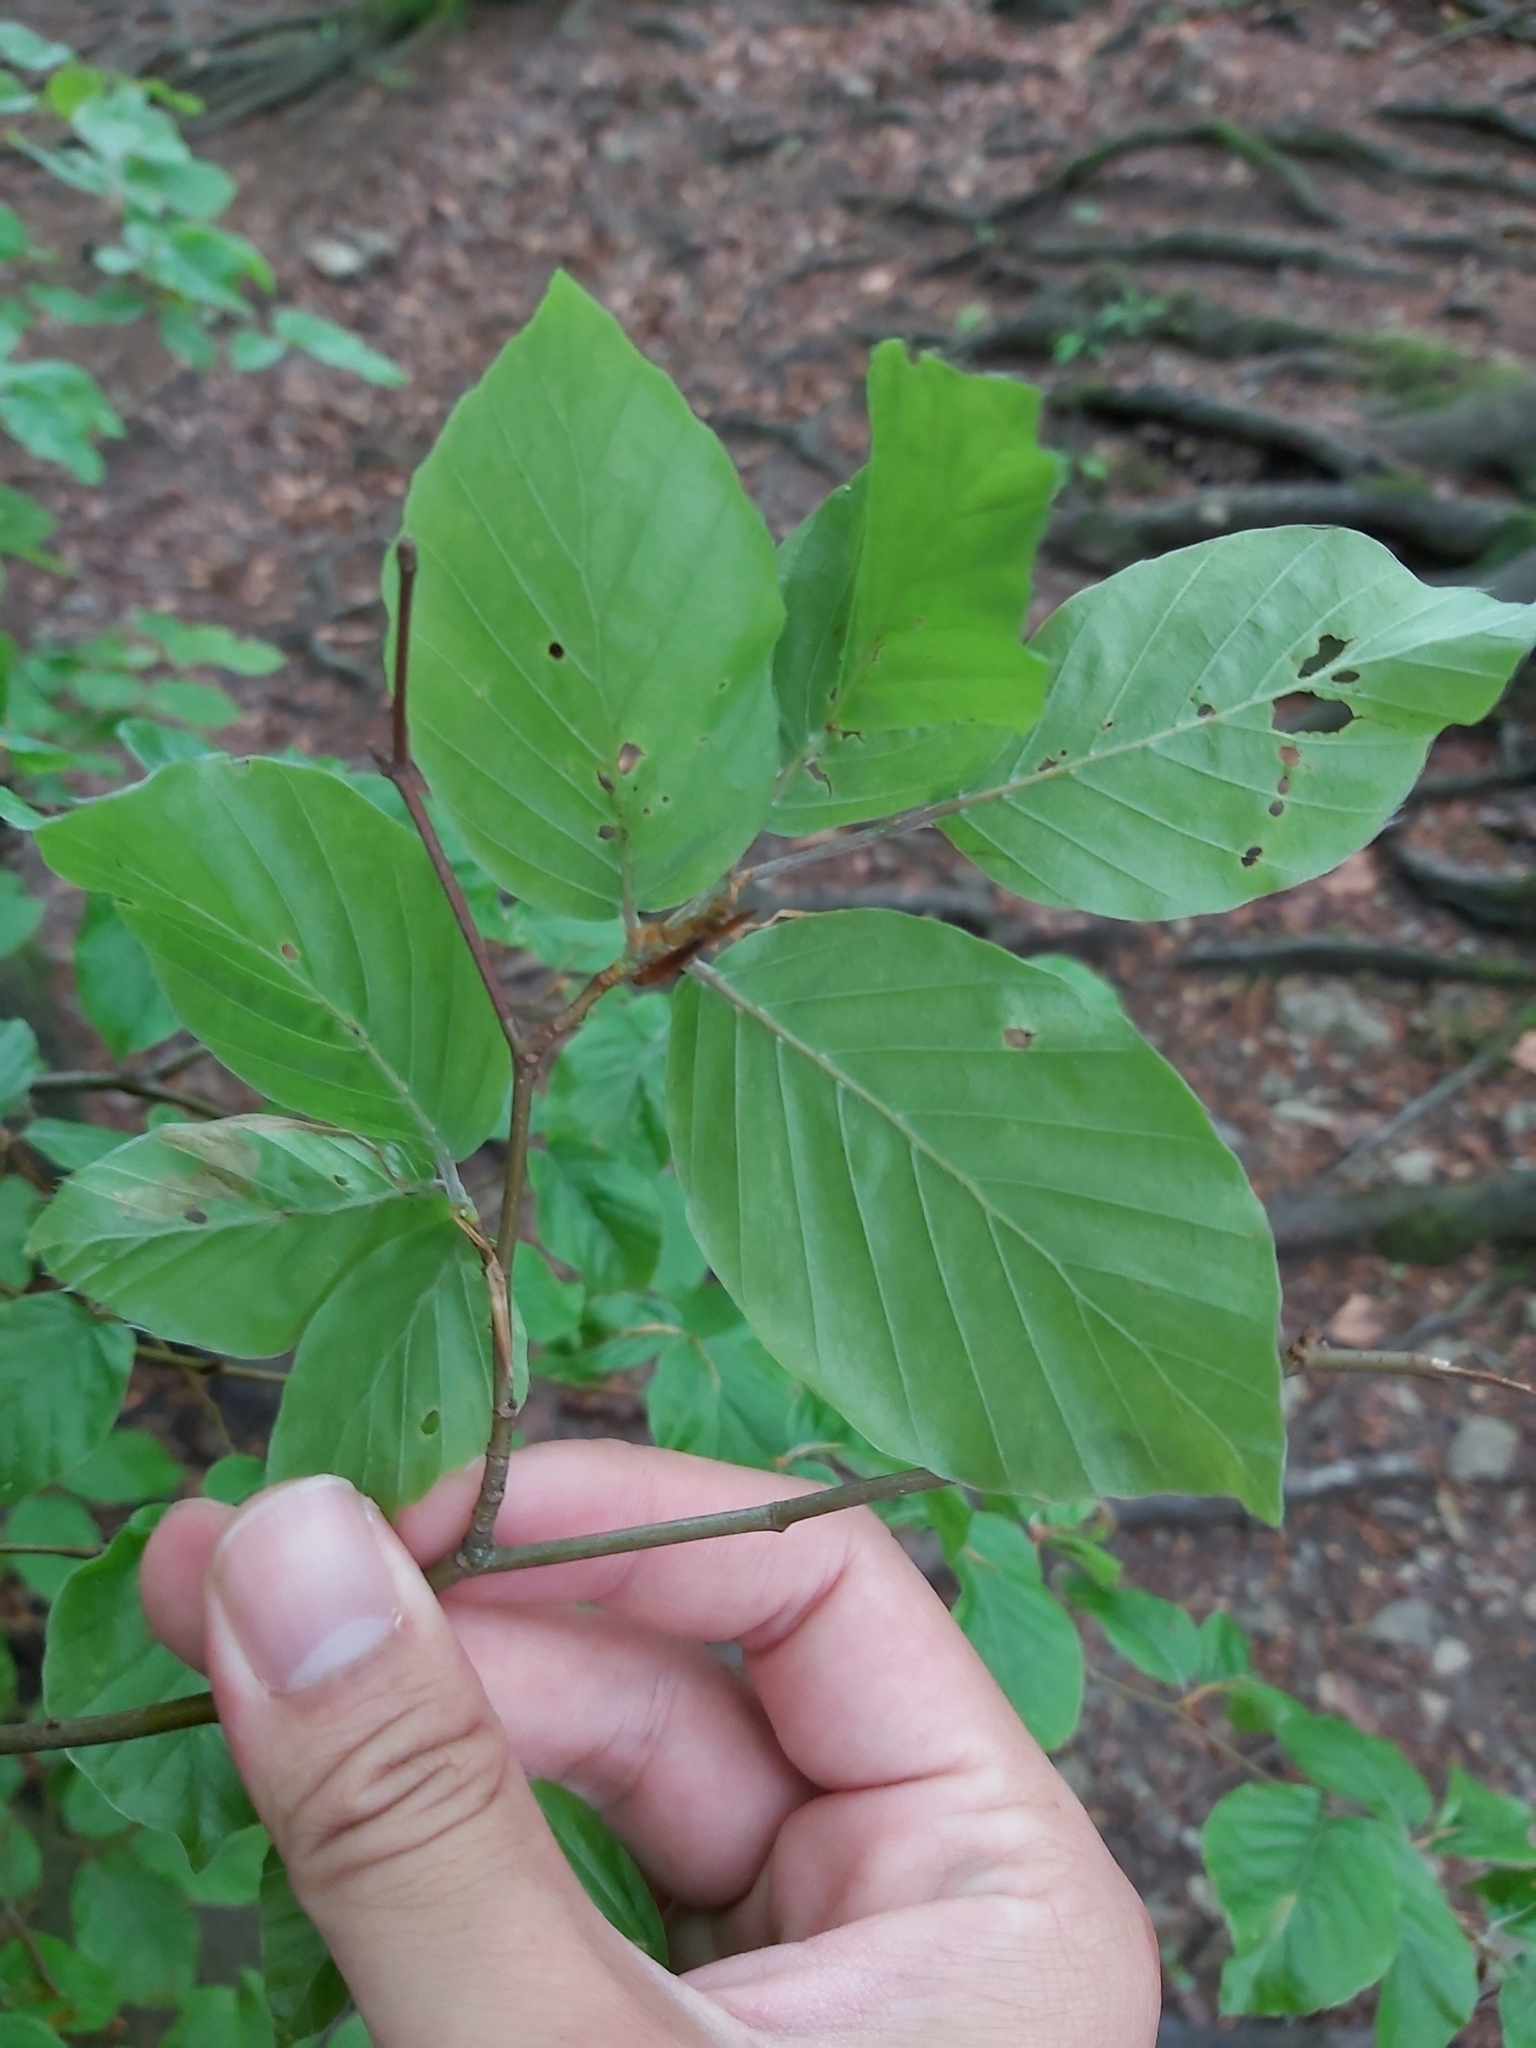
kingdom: Plantae
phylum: Tracheophyta
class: Magnoliopsida
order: Fagales
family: Fagaceae
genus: Fagus
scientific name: Fagus sylvatica
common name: Beech
